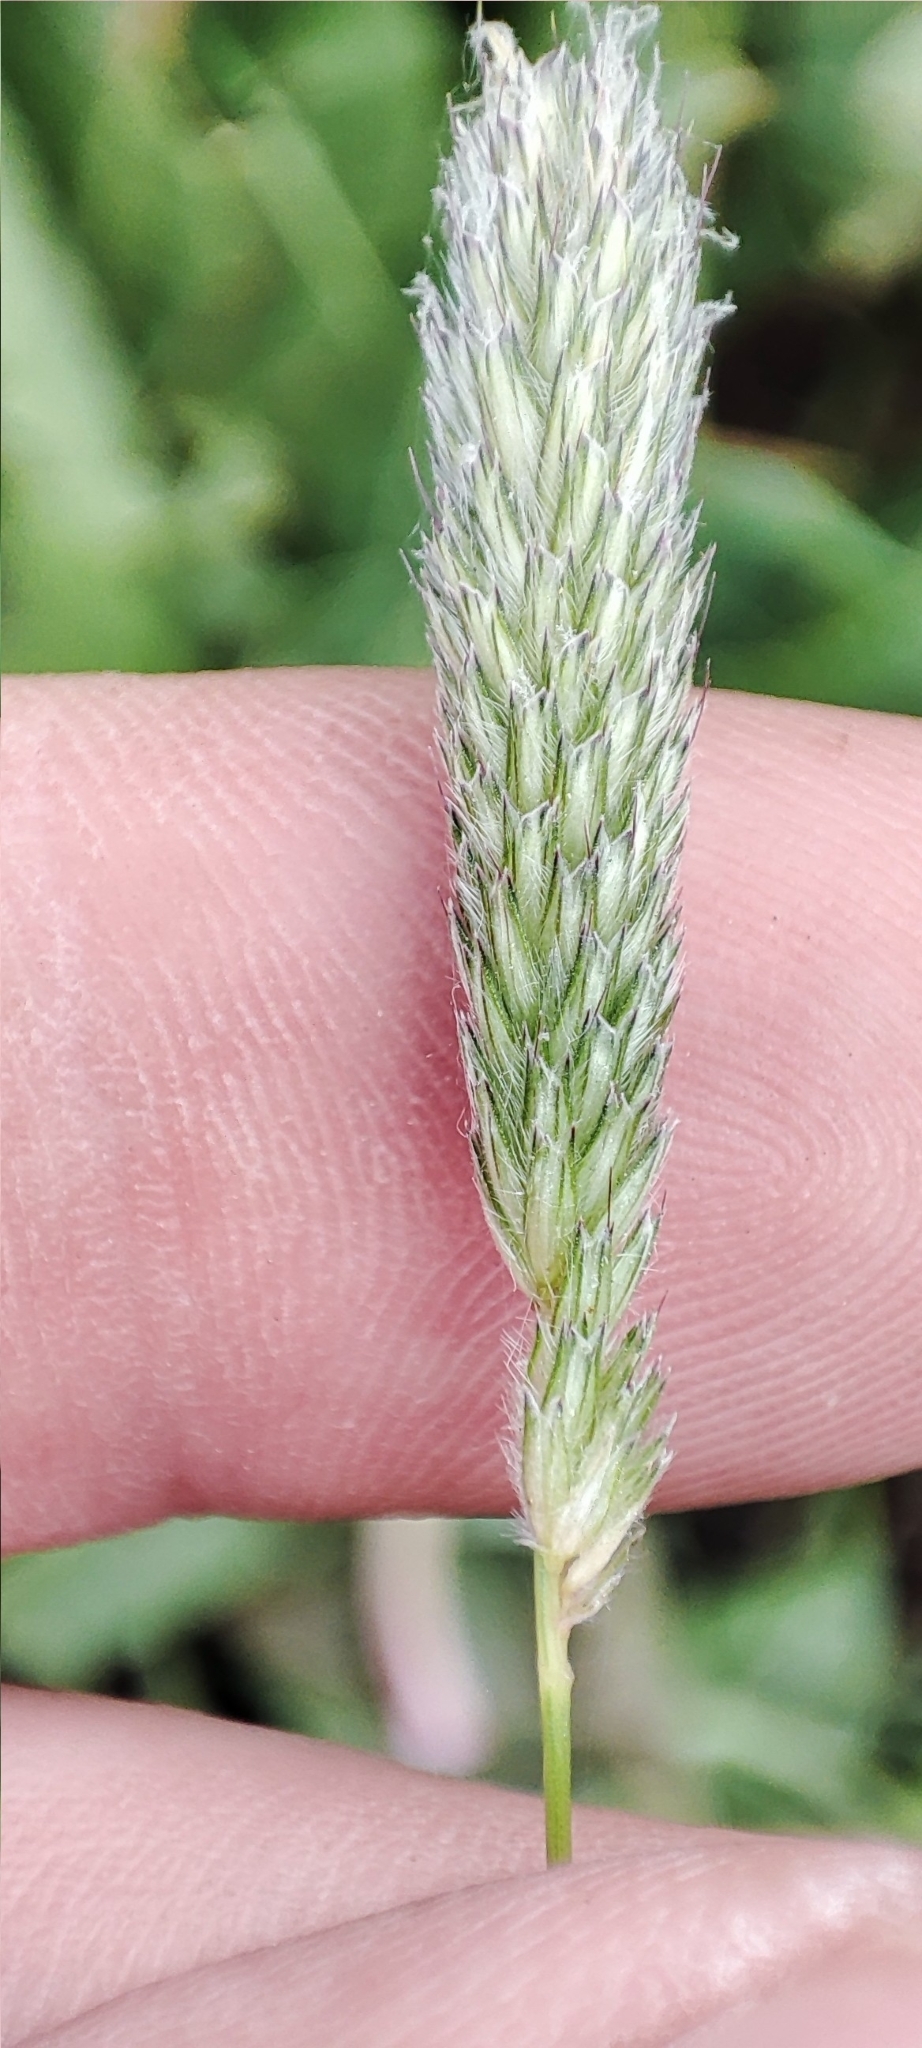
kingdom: Plantae
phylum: Tracheophyta
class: Liliopsida
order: Poales
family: Poaceae
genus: Alopecurus
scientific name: Alopecurus pratensis
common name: Meadow foxtail
